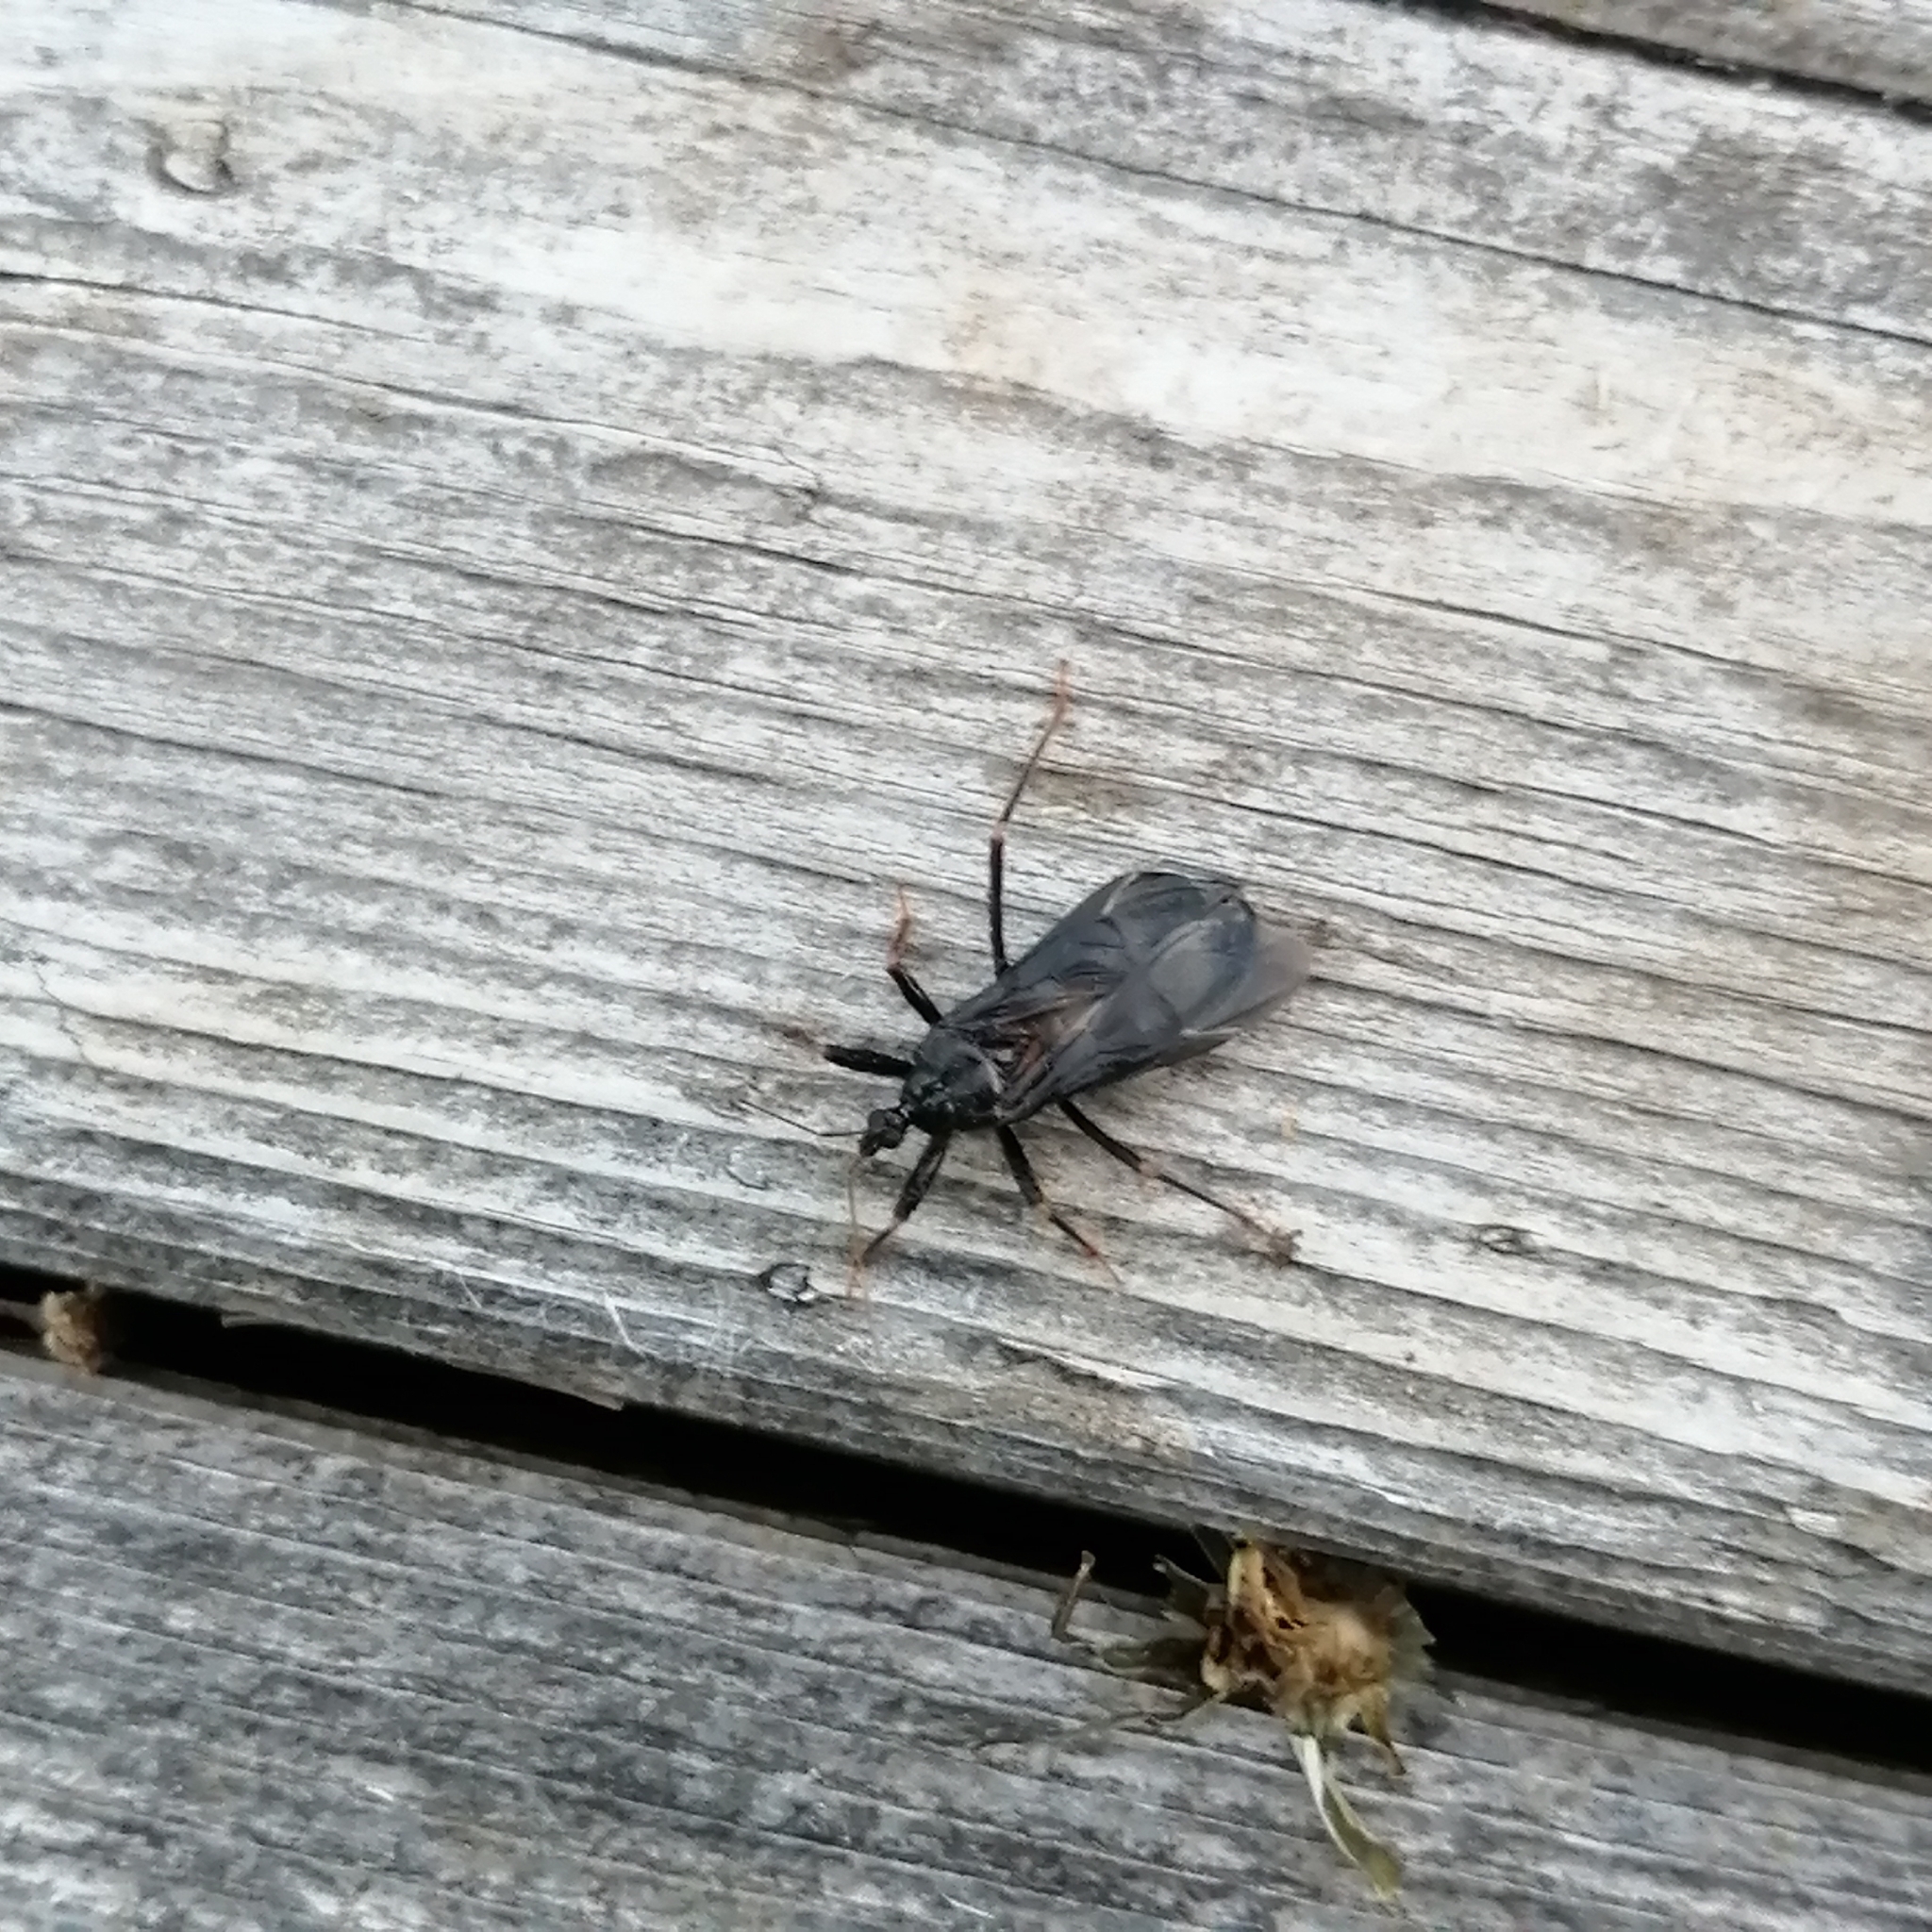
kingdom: Animalia
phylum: Arthropoda
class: Insecta
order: Hemiptera
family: Reduviidae
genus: Reduvius
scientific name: Reduvius personatus
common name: Masked hunter
